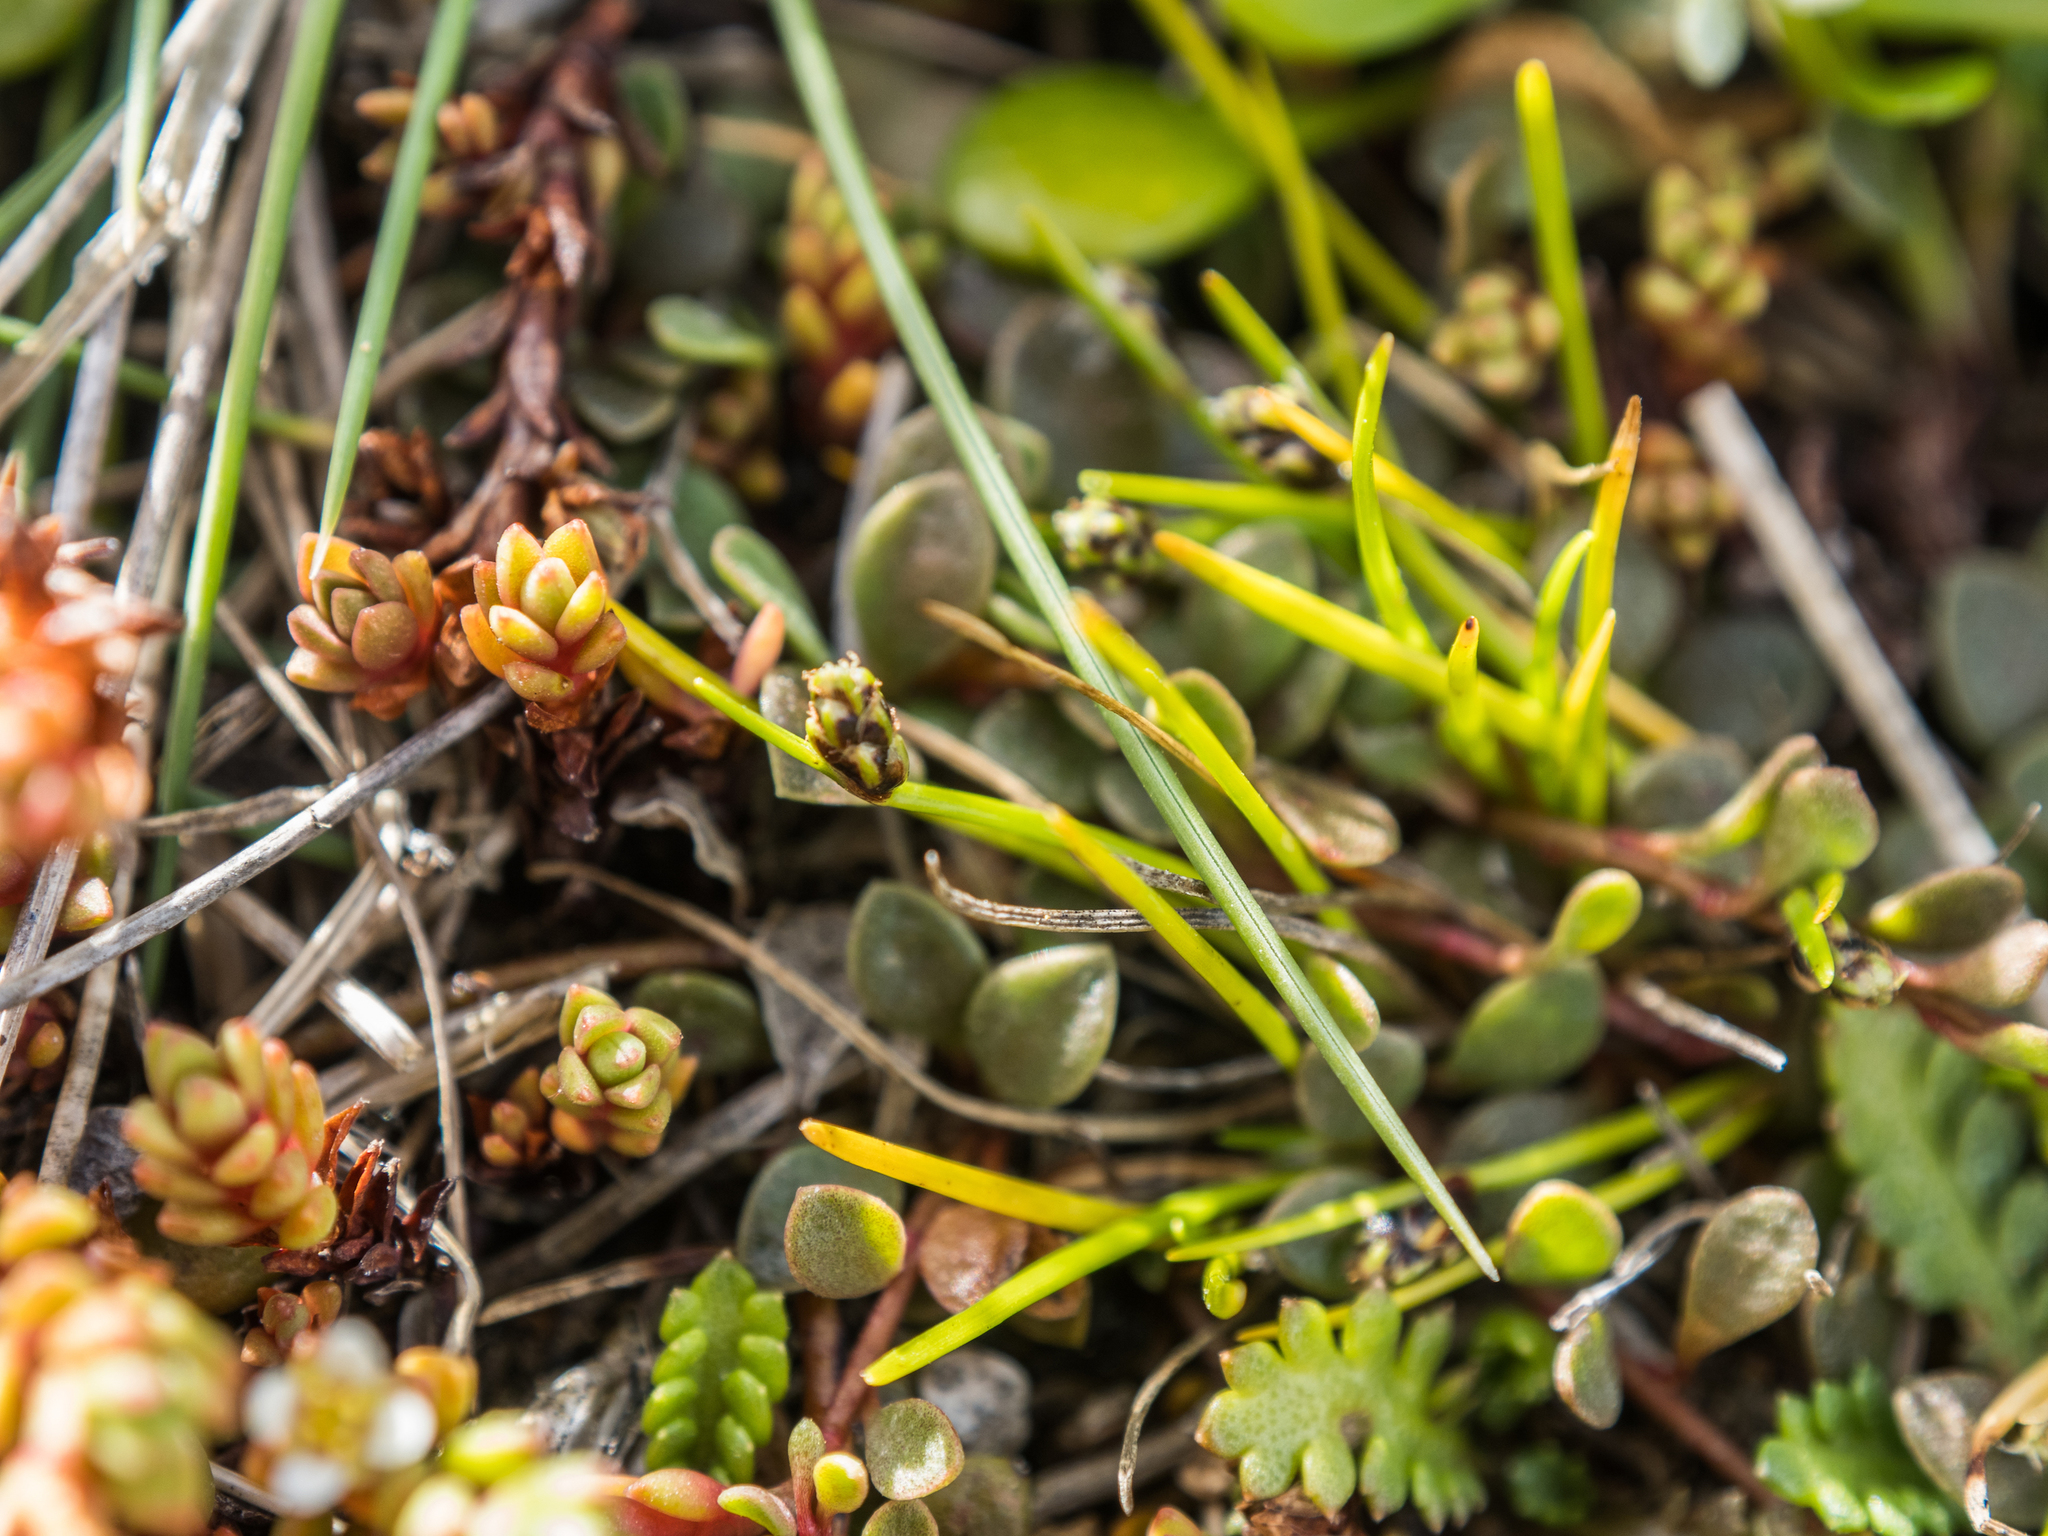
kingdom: Plantae
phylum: Tracheophyta
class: Liliopsida
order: Poales
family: Cyperaceae
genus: Isolepis
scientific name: Isolepis cernua
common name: Slender club-rush
